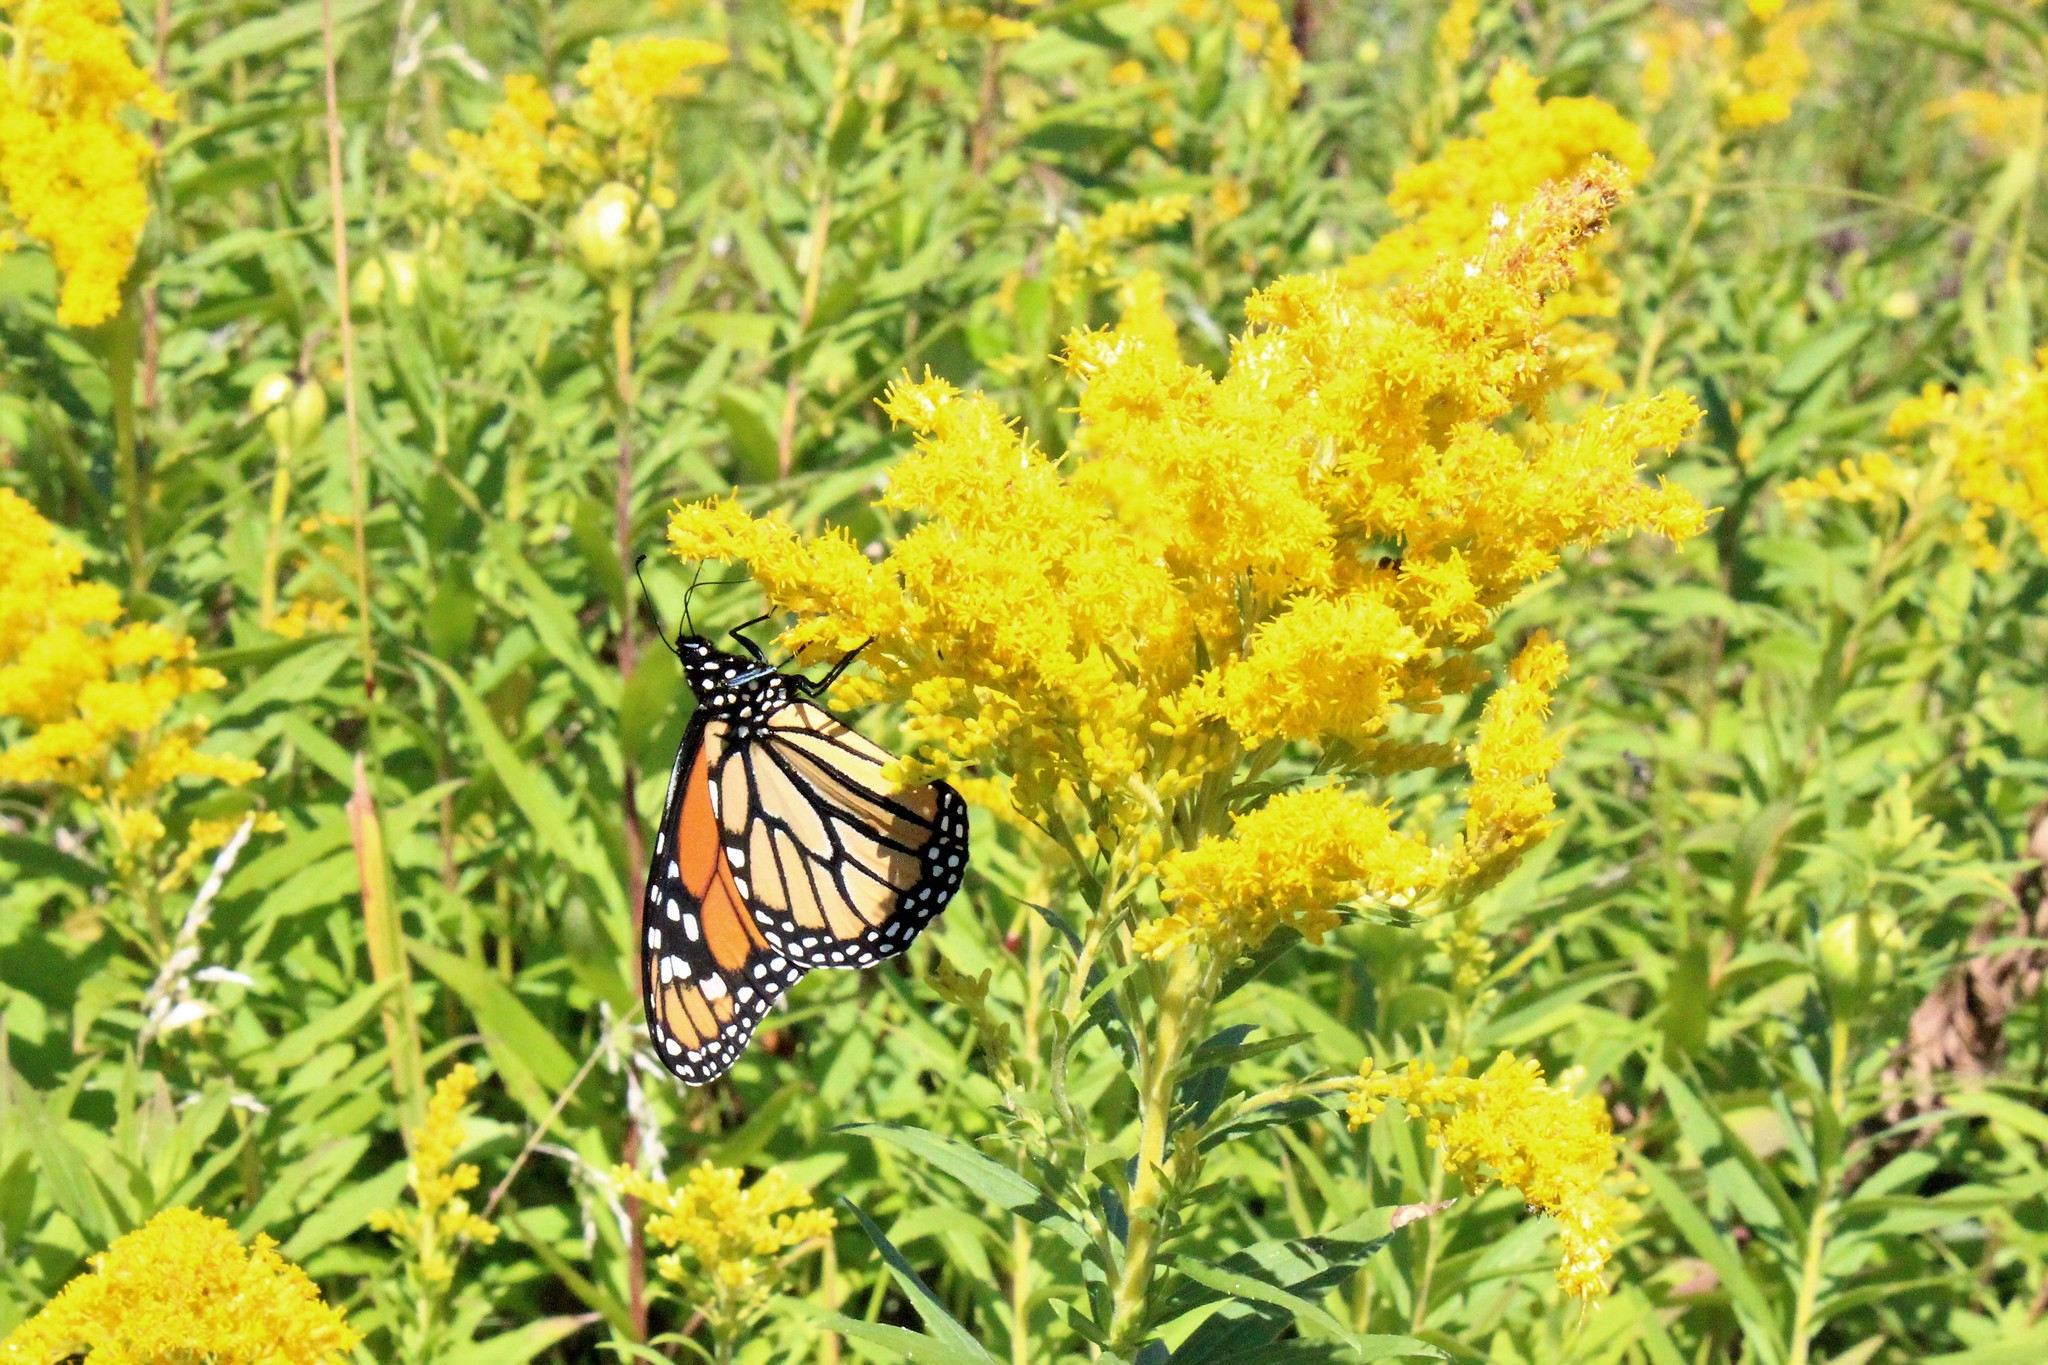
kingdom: Animalia
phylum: Arthropoda
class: Insecta
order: Lepidoptera
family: Nymphalidae
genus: Danaus
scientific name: Danaus plexippus
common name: Monarch
